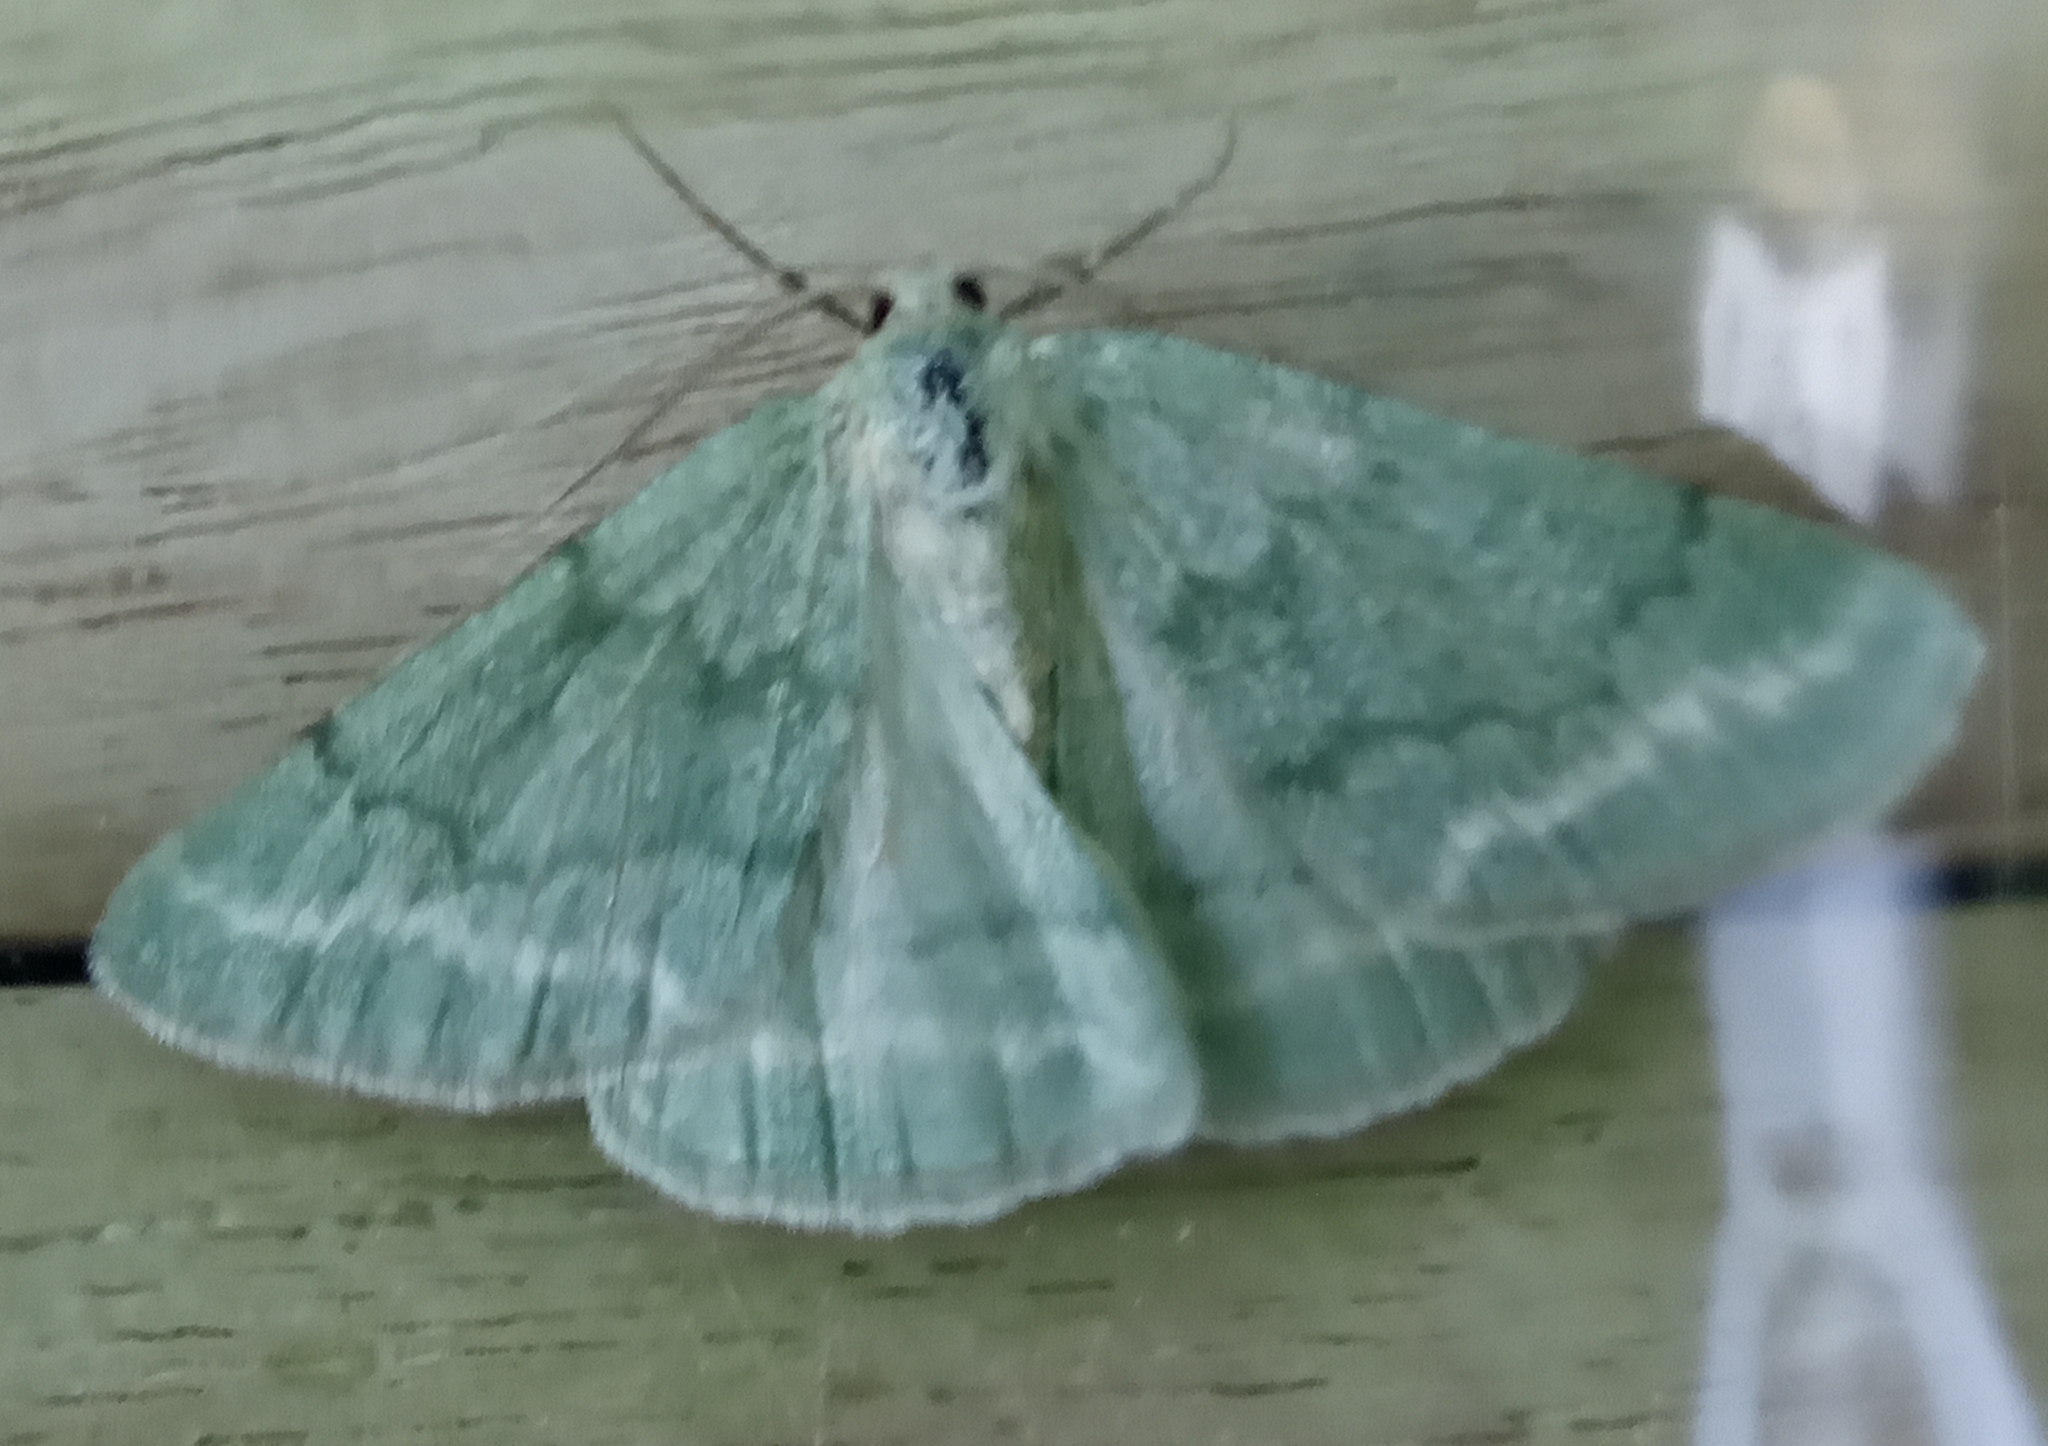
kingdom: Animalia
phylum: Arthropoda
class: Insecta
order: Lepidoptera
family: Geometridae
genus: Pseudoterpna
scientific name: Pseudoterpna pruinata
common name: Grass emerald
